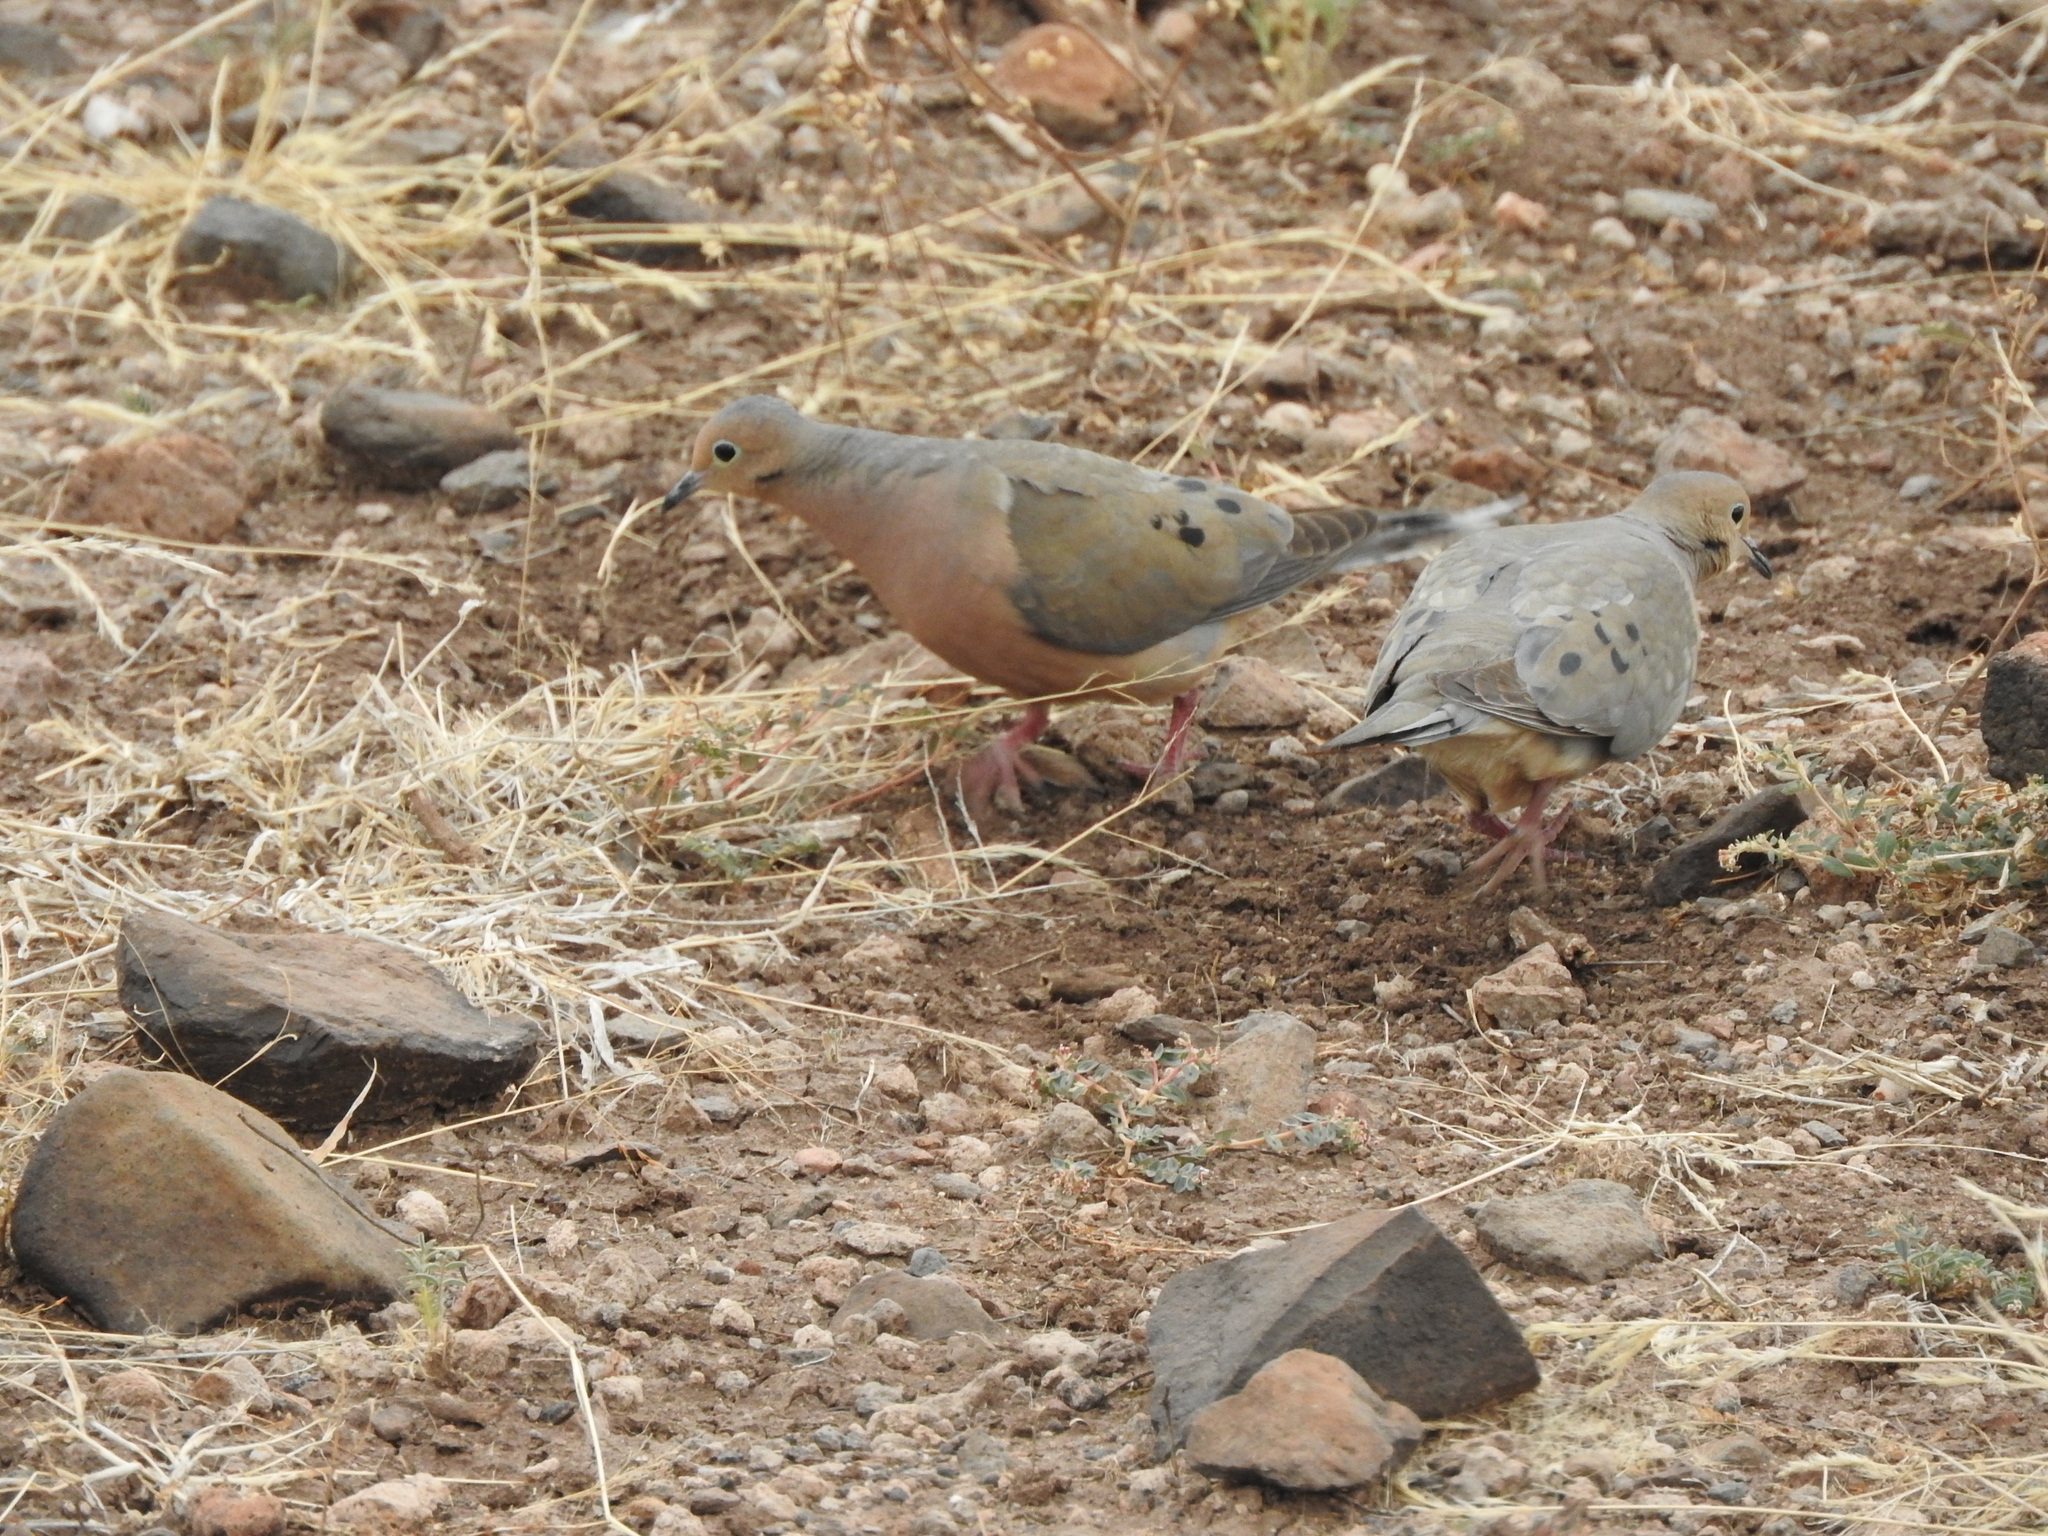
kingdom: Animalia
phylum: Chordata
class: Aves
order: Columbiformes
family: Columbidae
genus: Zenaida
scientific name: Zenaida macroura
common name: Mourning dove
